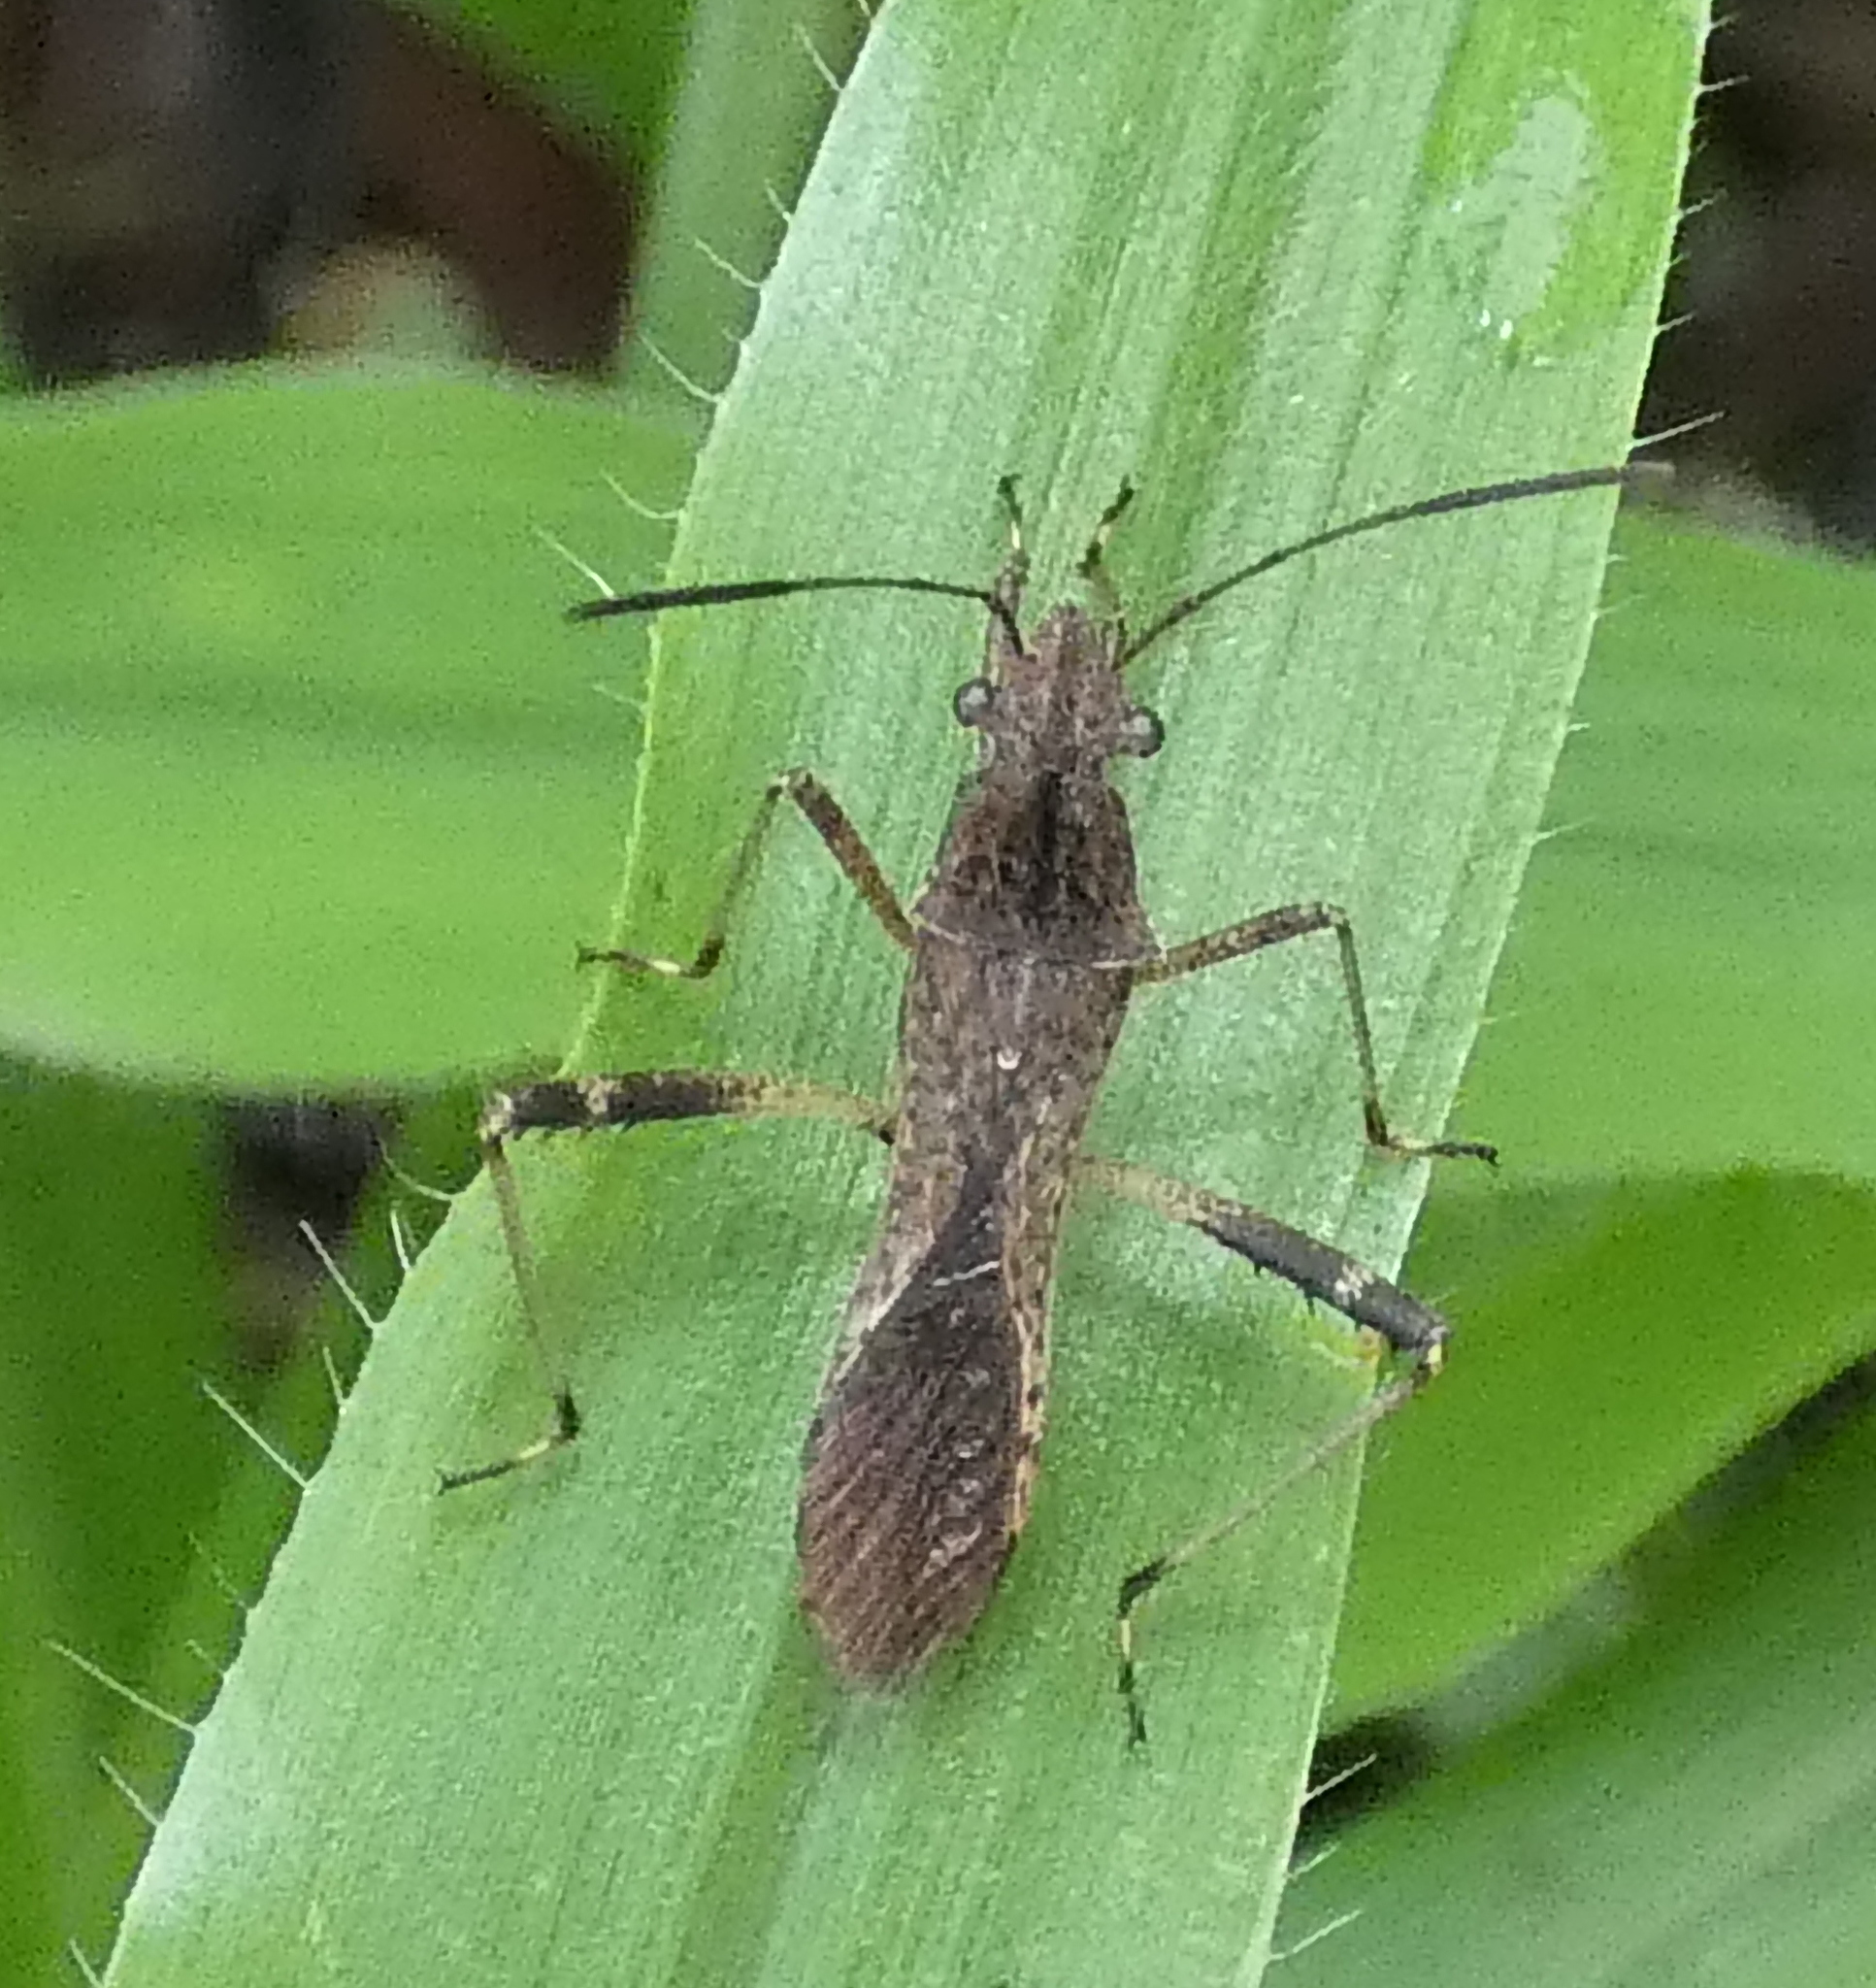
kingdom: Animalia
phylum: Arthropoda
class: Insecta
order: Hemiptera
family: Alydidae
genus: Neomegalotomus
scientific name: Neomegalotomus parvus
